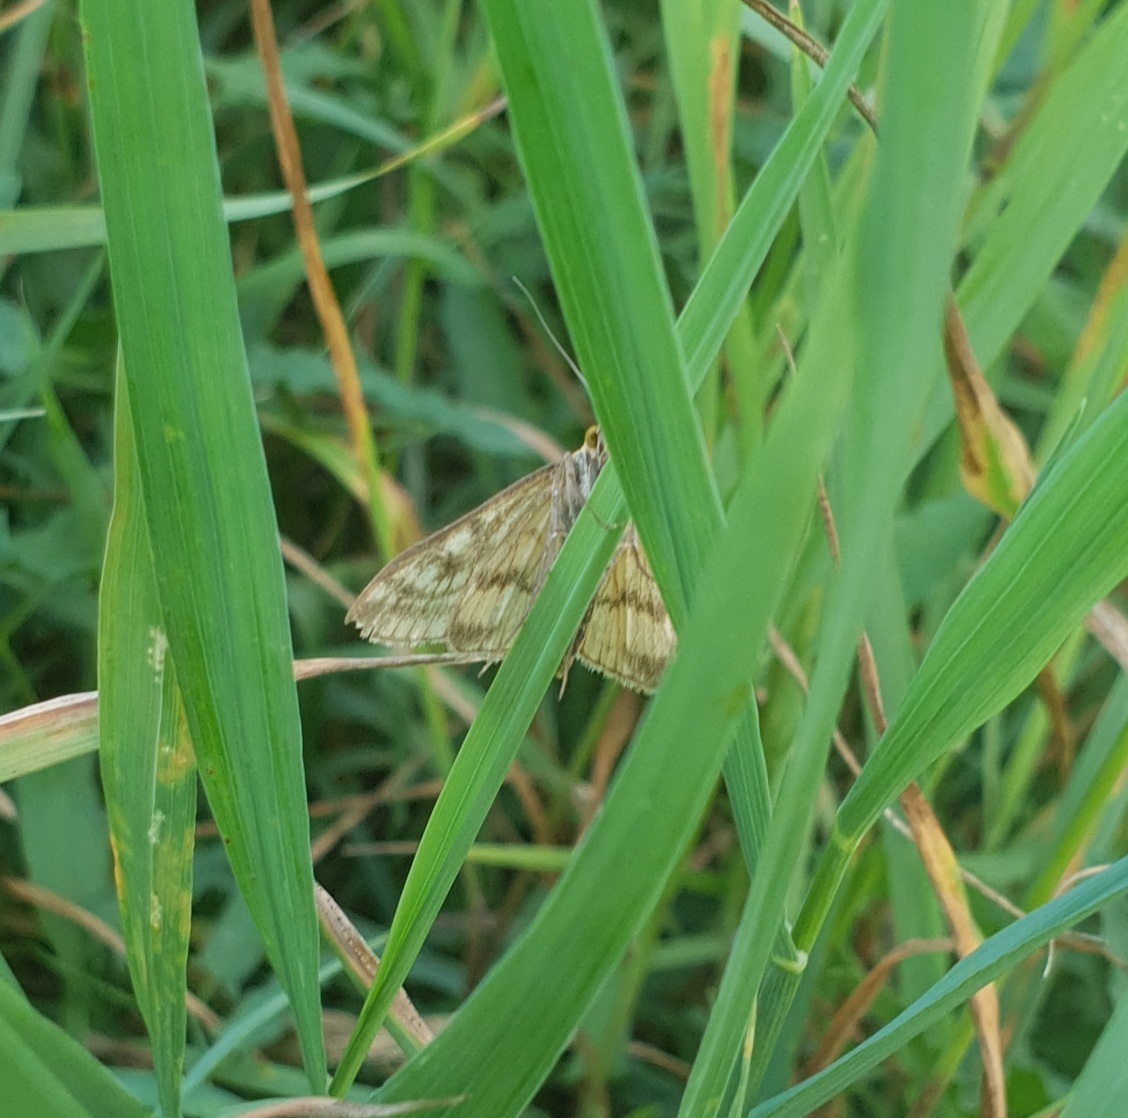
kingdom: Animalia
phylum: Arthropoda
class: Insecta
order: Lepidoptera
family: Crambidae
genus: Sitochroa
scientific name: Sitochroa verticalis
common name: Lesser pearl
